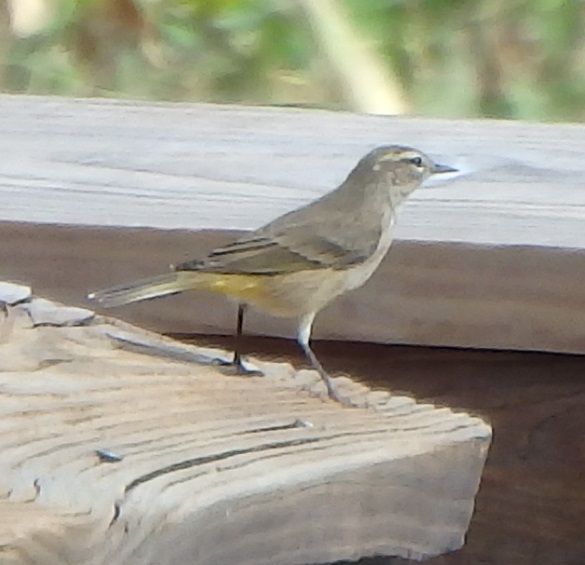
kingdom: Animalia
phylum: Chordata
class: Aves
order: Passeriformes
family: Parulidae
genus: Setophaga
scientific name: Setophaga palmarum
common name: Palm warbler
